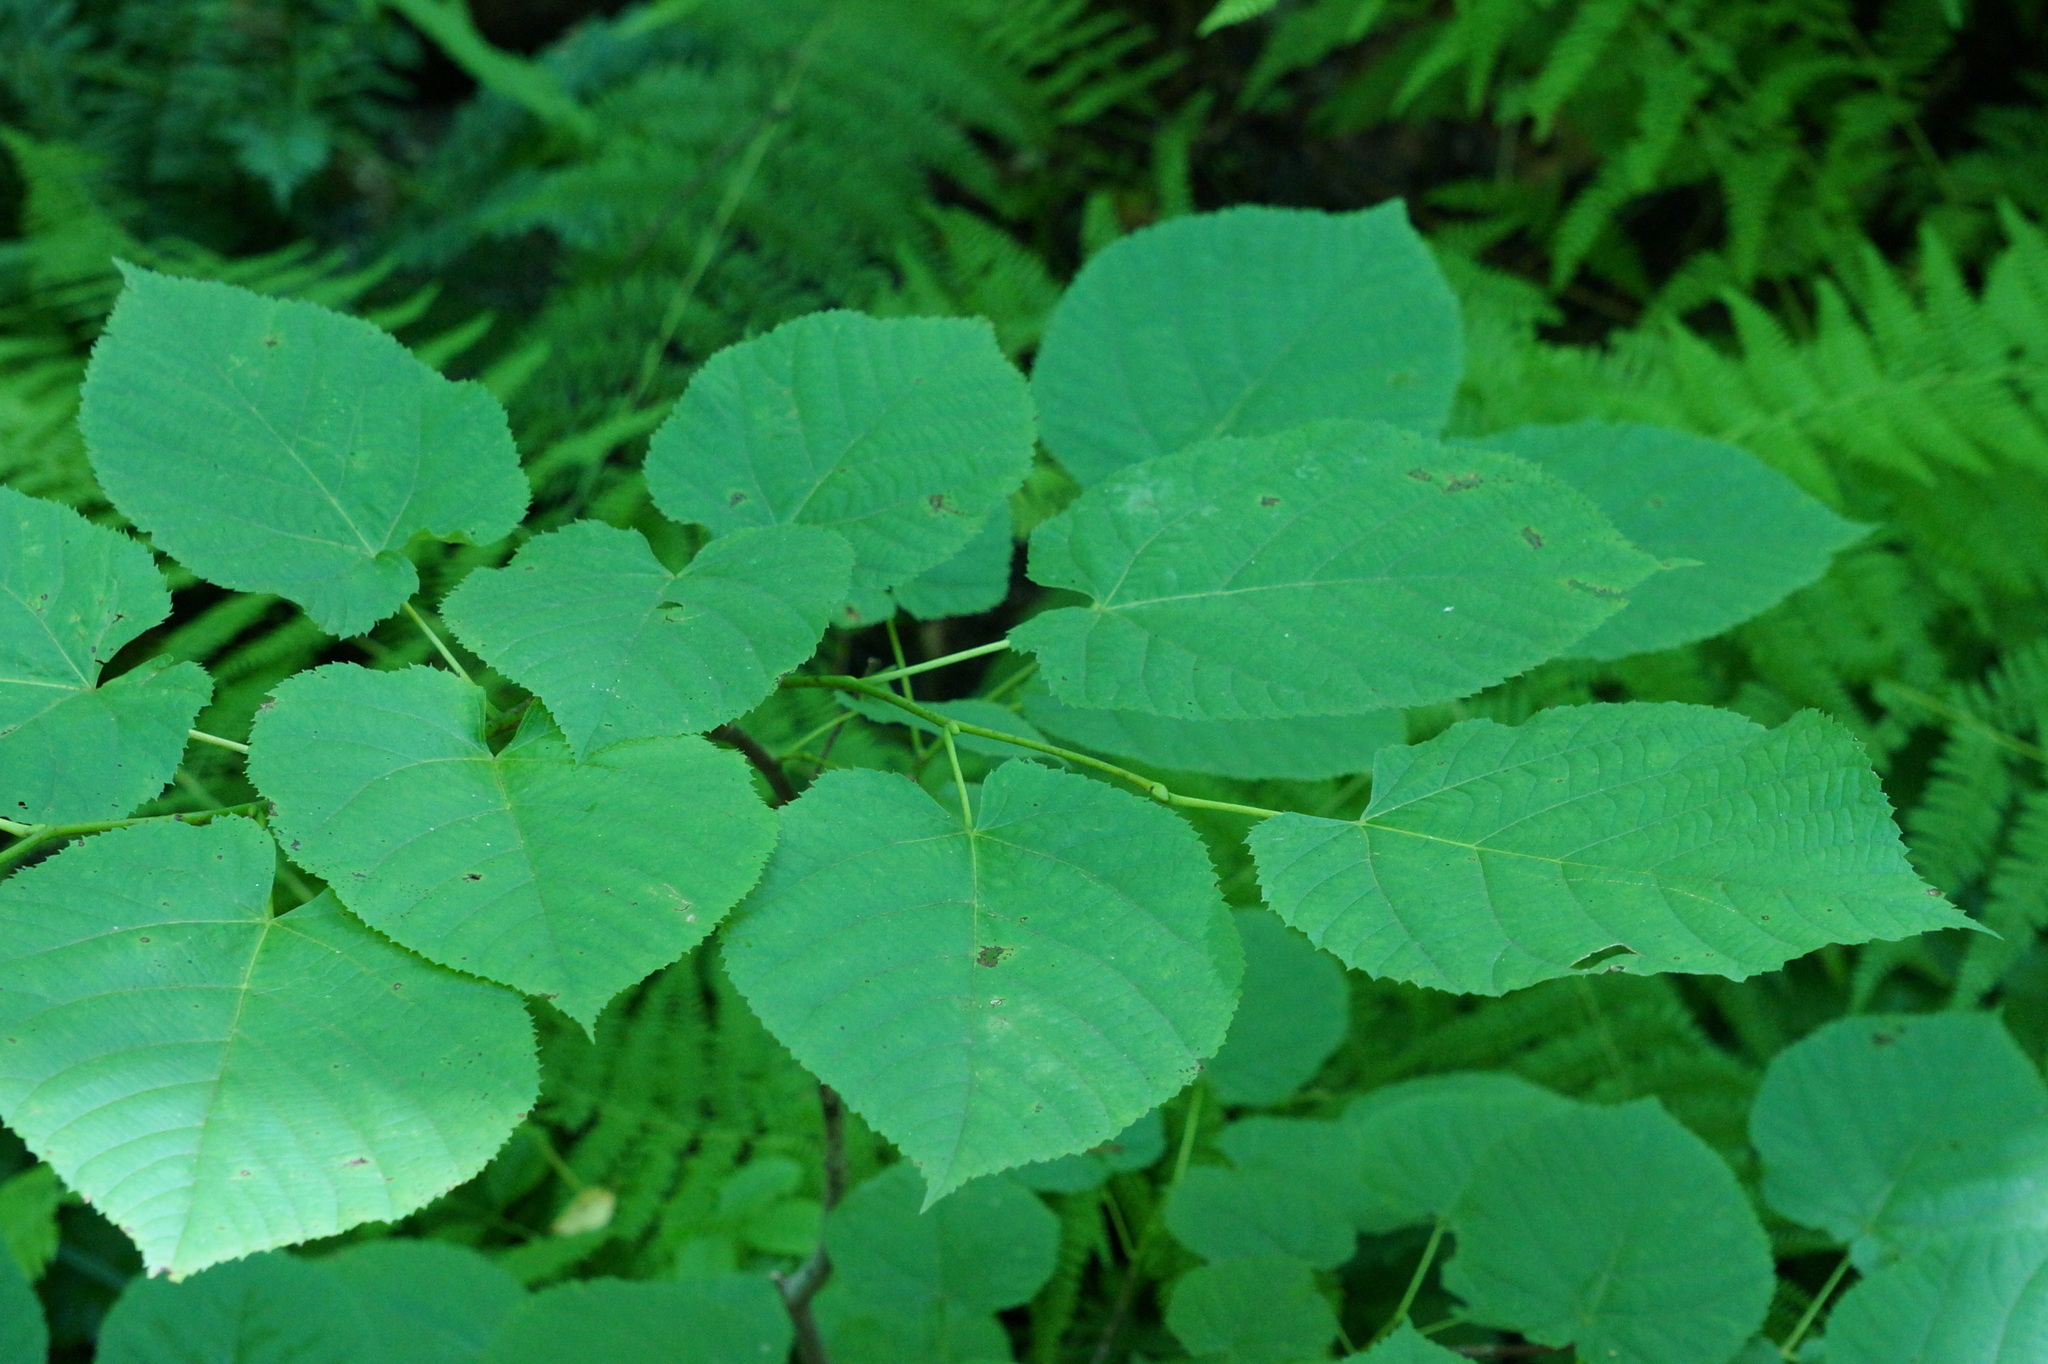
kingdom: Plantae
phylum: Tracheophyta
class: Magnoliopsida
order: Malvales
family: Malvaceae
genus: Tilia
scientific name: Tilia americana
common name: Basswood
